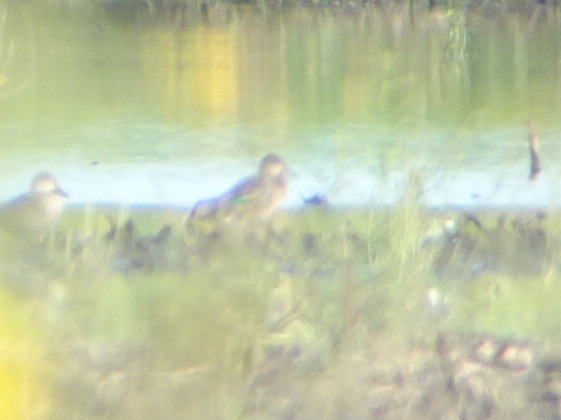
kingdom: Animalia
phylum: Chordata
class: Aves
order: Anseriformes
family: Anatidae
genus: Anas
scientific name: Anas crecca
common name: Eurasian teal
